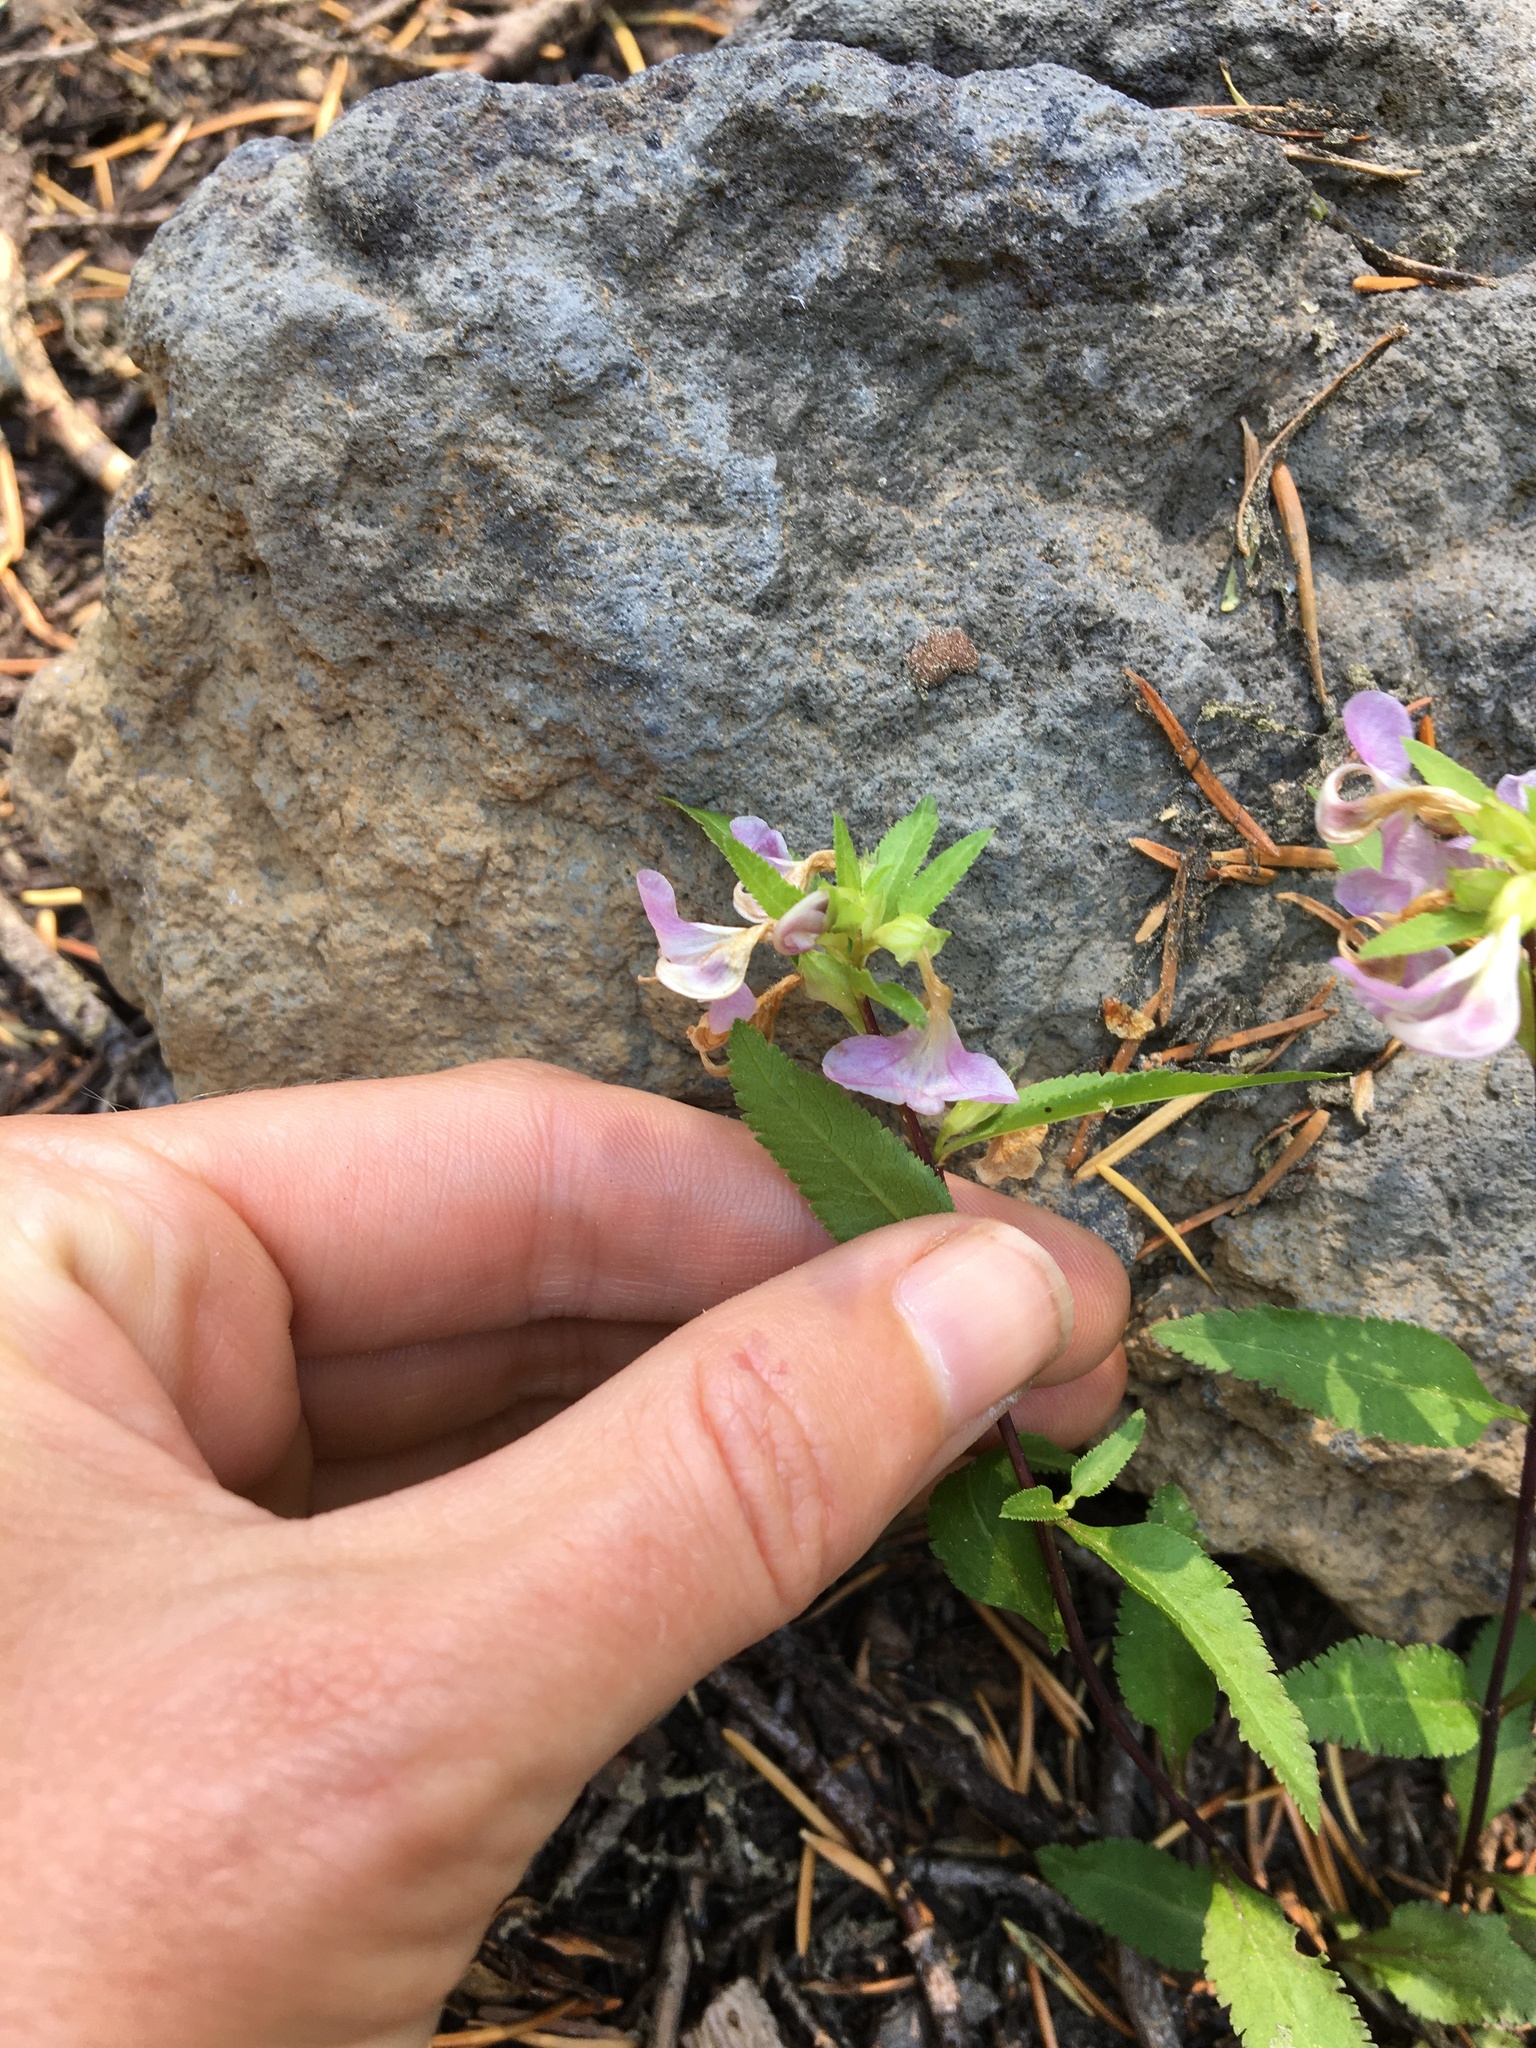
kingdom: Plantae
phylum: Tracheophyta
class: Magnoliopsida
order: Lamiales
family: Orobanchaceae
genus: Pedicularis
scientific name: Pedicularis racemosa
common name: Leafy lousewort
